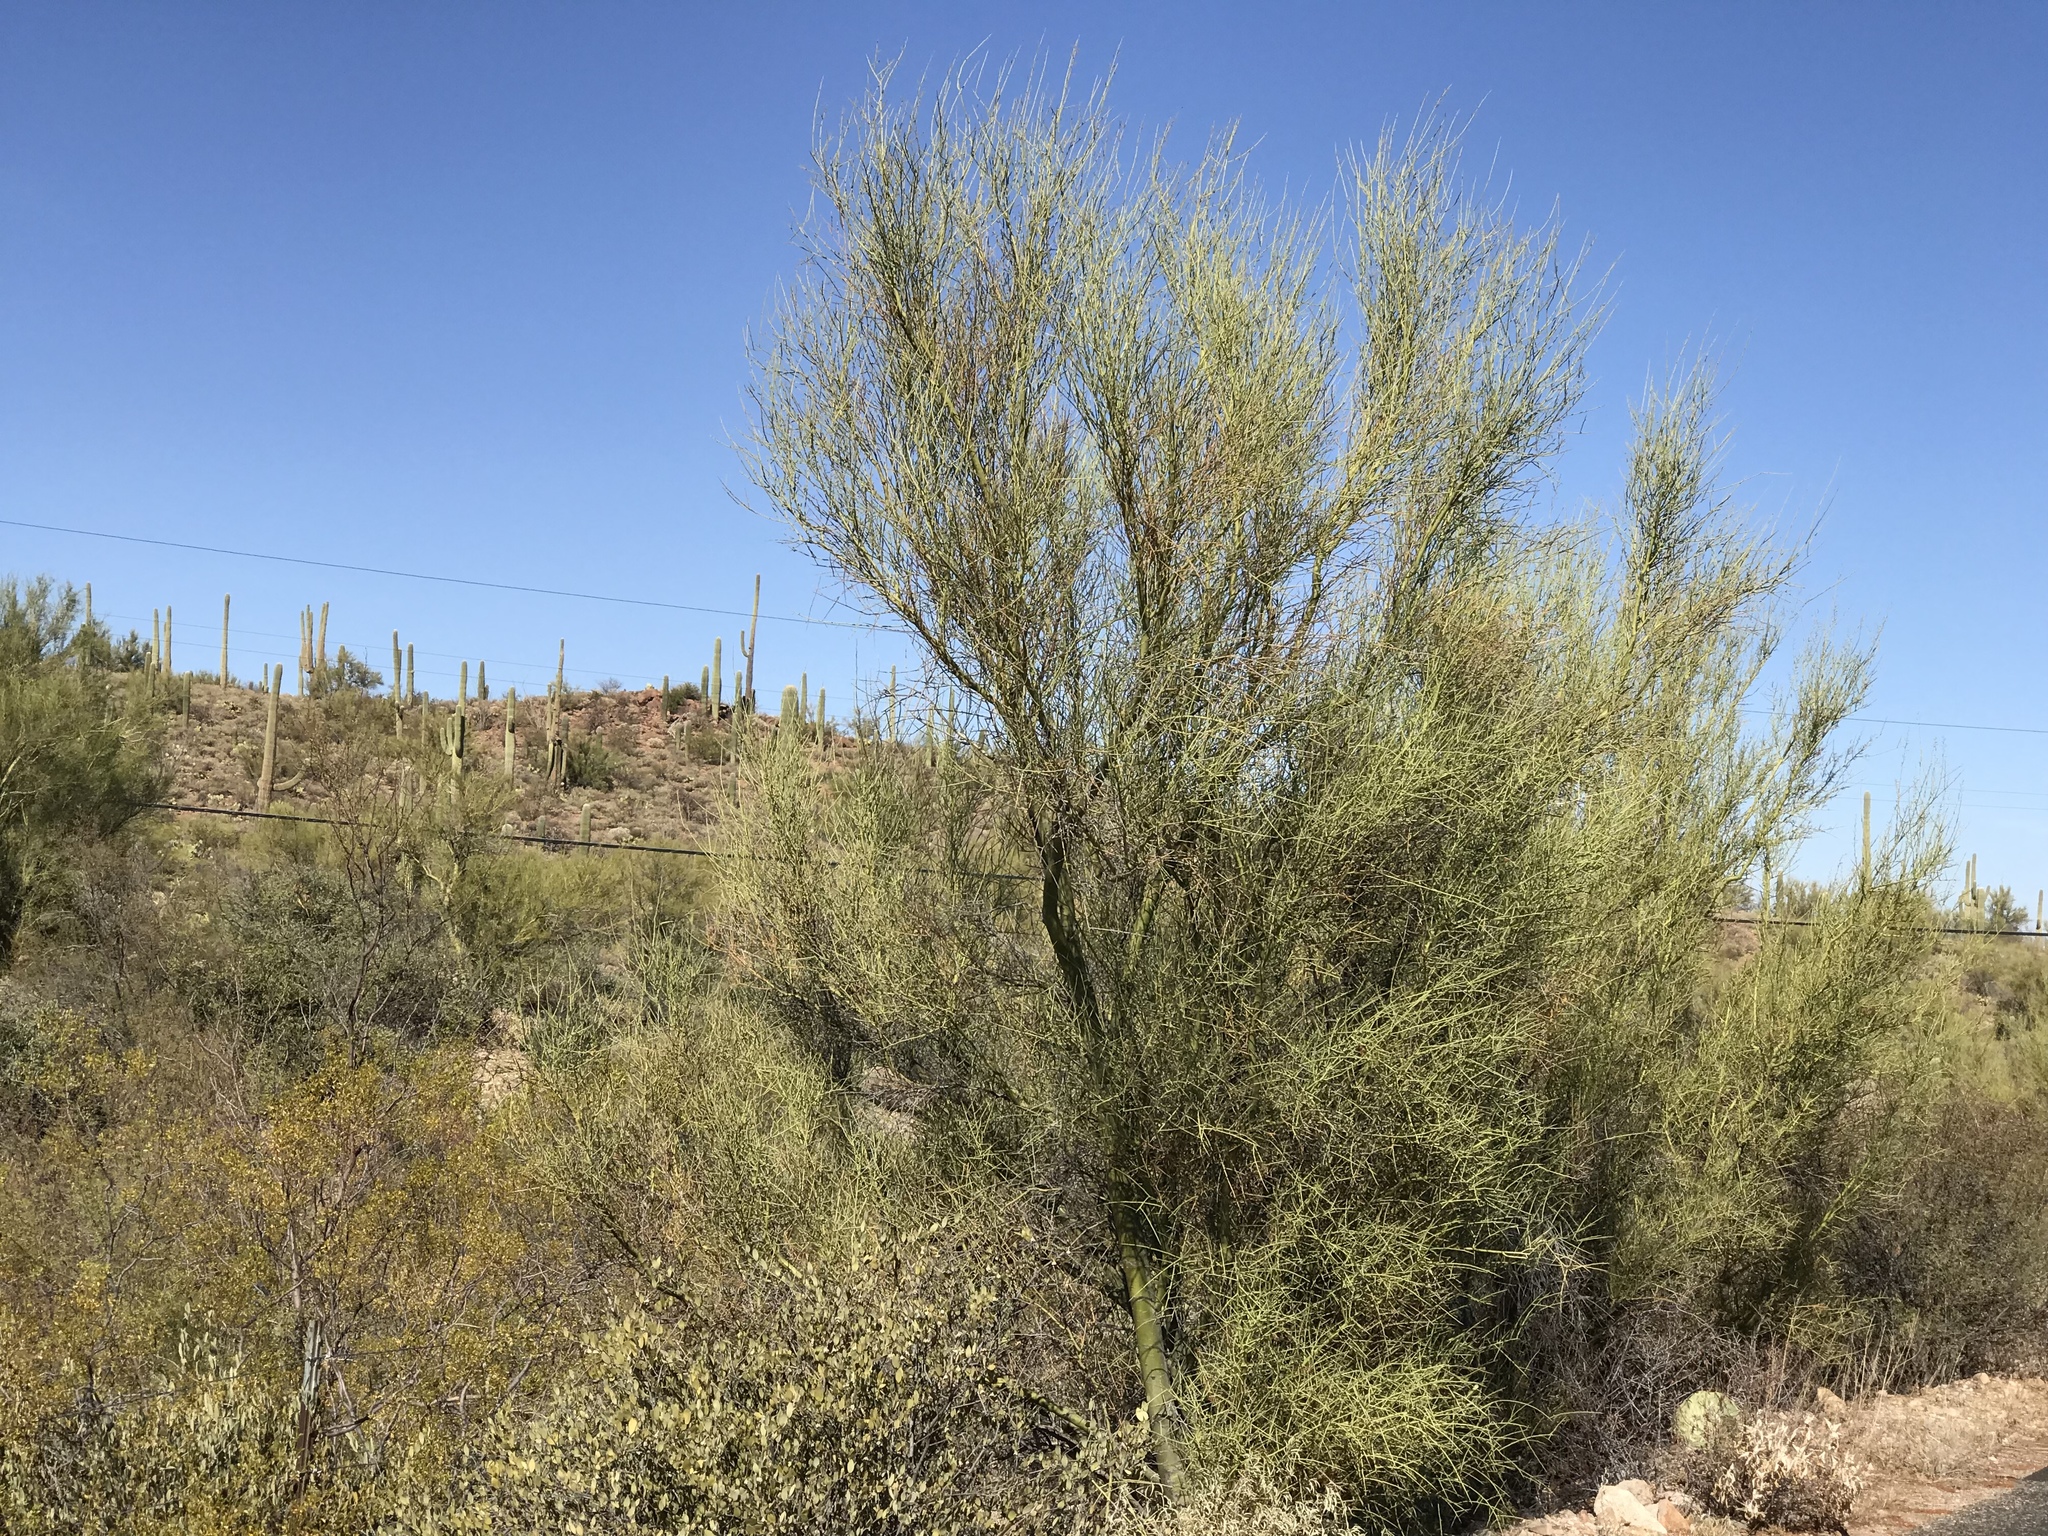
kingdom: Plantae
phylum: Tracheophyta
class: Magnoliopsida
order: Fabales
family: Fabaceae
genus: Parkinsonia
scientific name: Parkinsonia florida
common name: Blue paloverde
